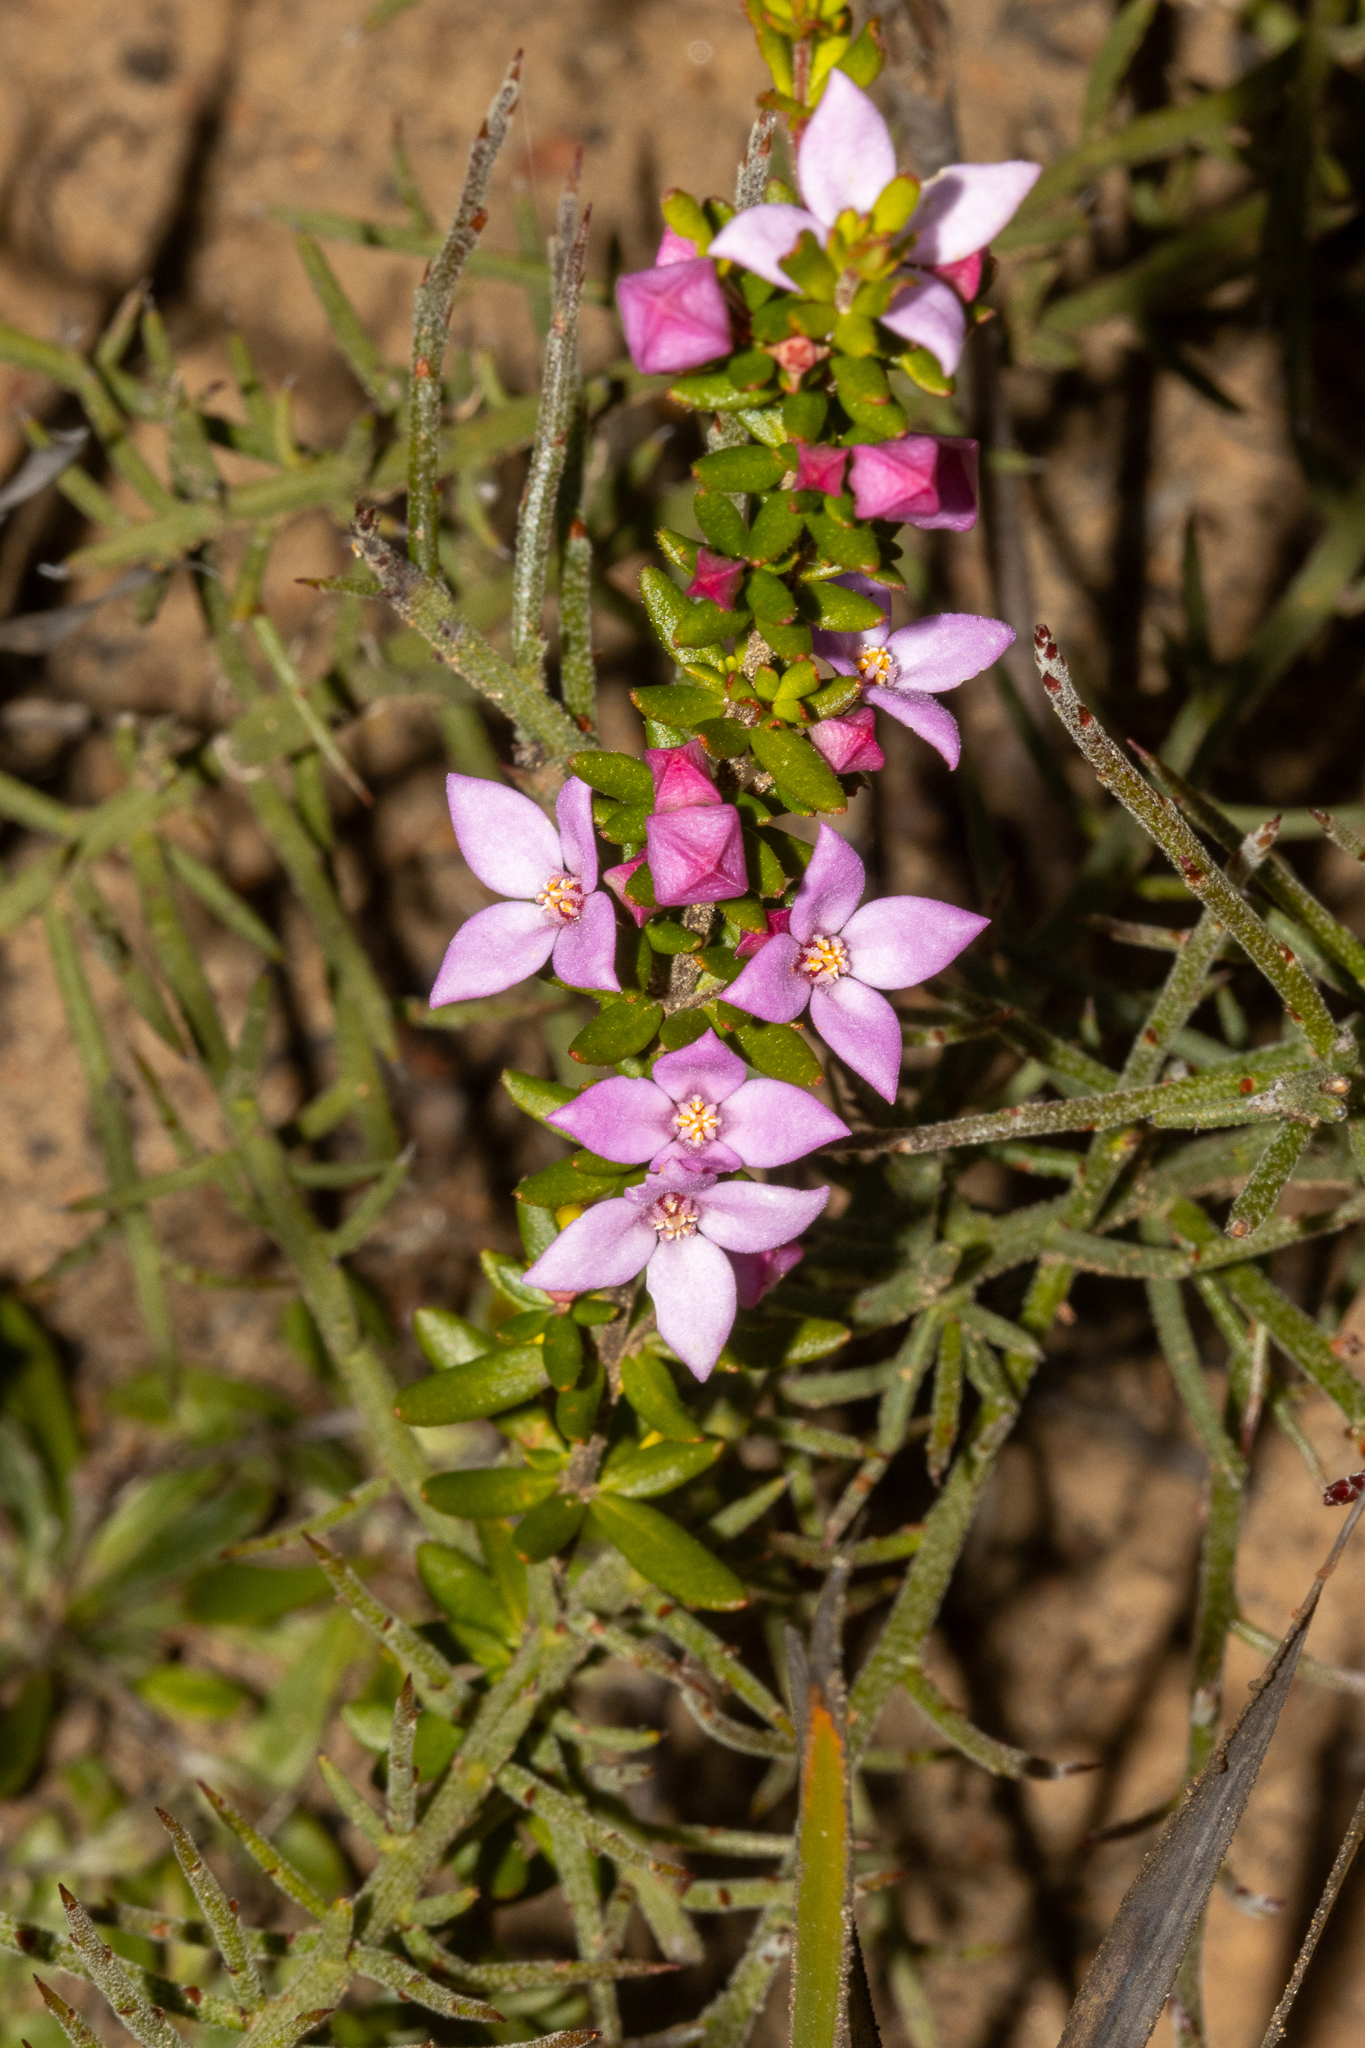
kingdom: Plantae
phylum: Tracheophyta
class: Magnoliopsida
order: Sapindales
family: Rutaceae
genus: Boronia
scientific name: Boronia edwardsii
